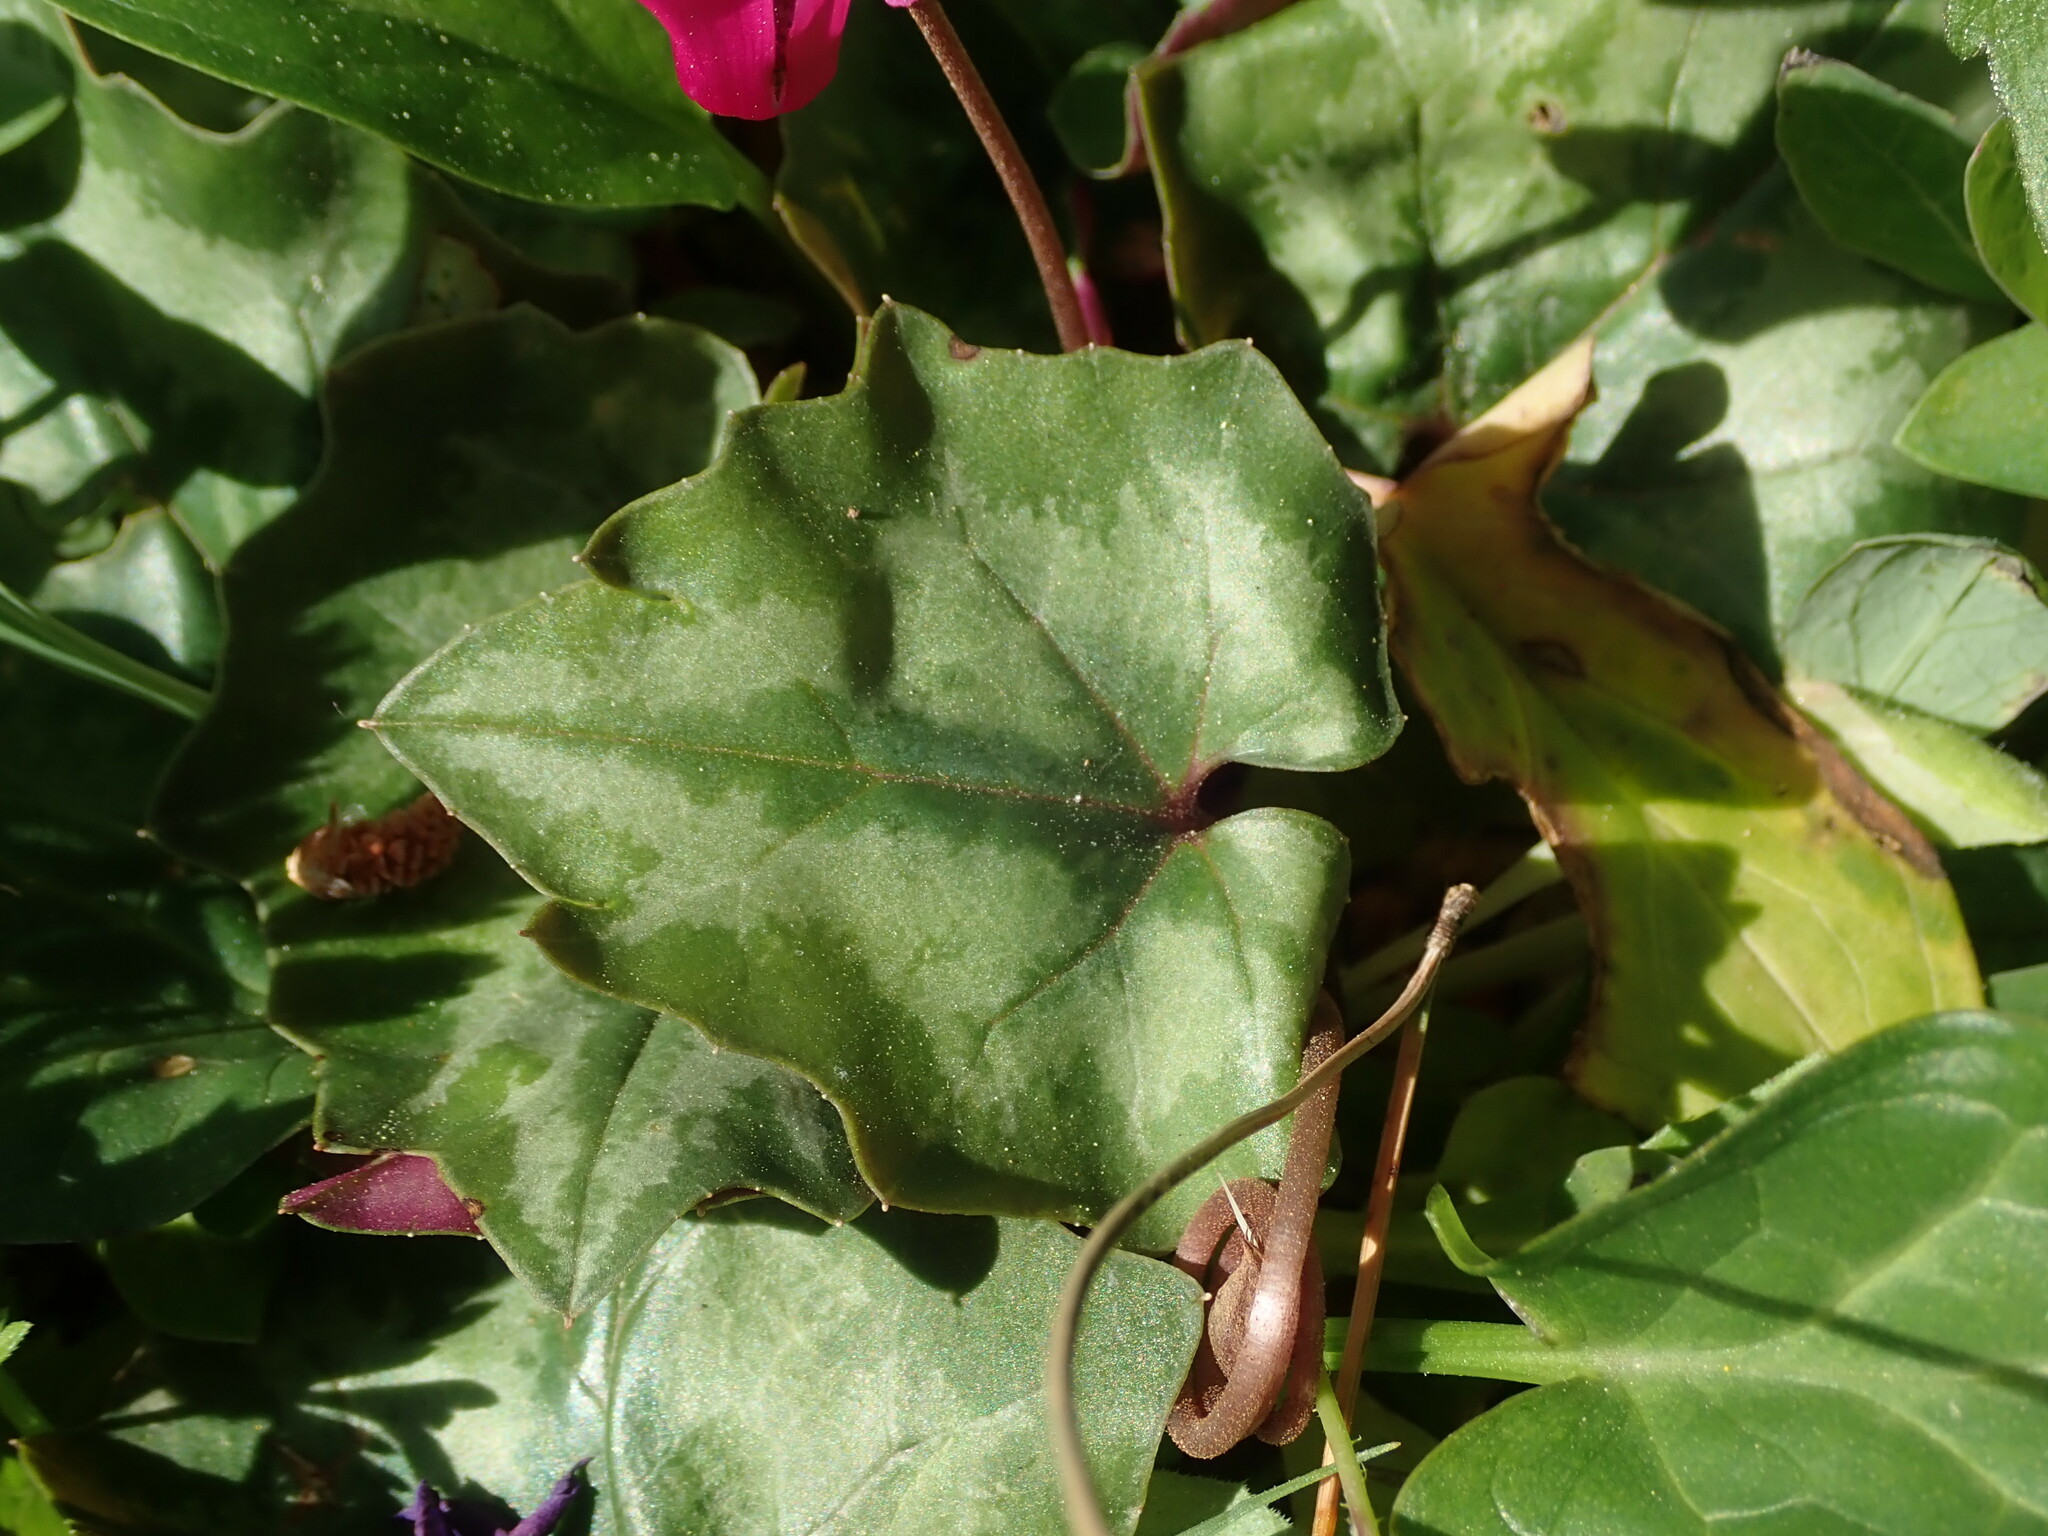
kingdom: Plantae
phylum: Tracheophyta
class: Magnoliopsida
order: Ericales
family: Primulaceae
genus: Cyclamen
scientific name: Cyclamen repandum
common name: Spring sowbread
